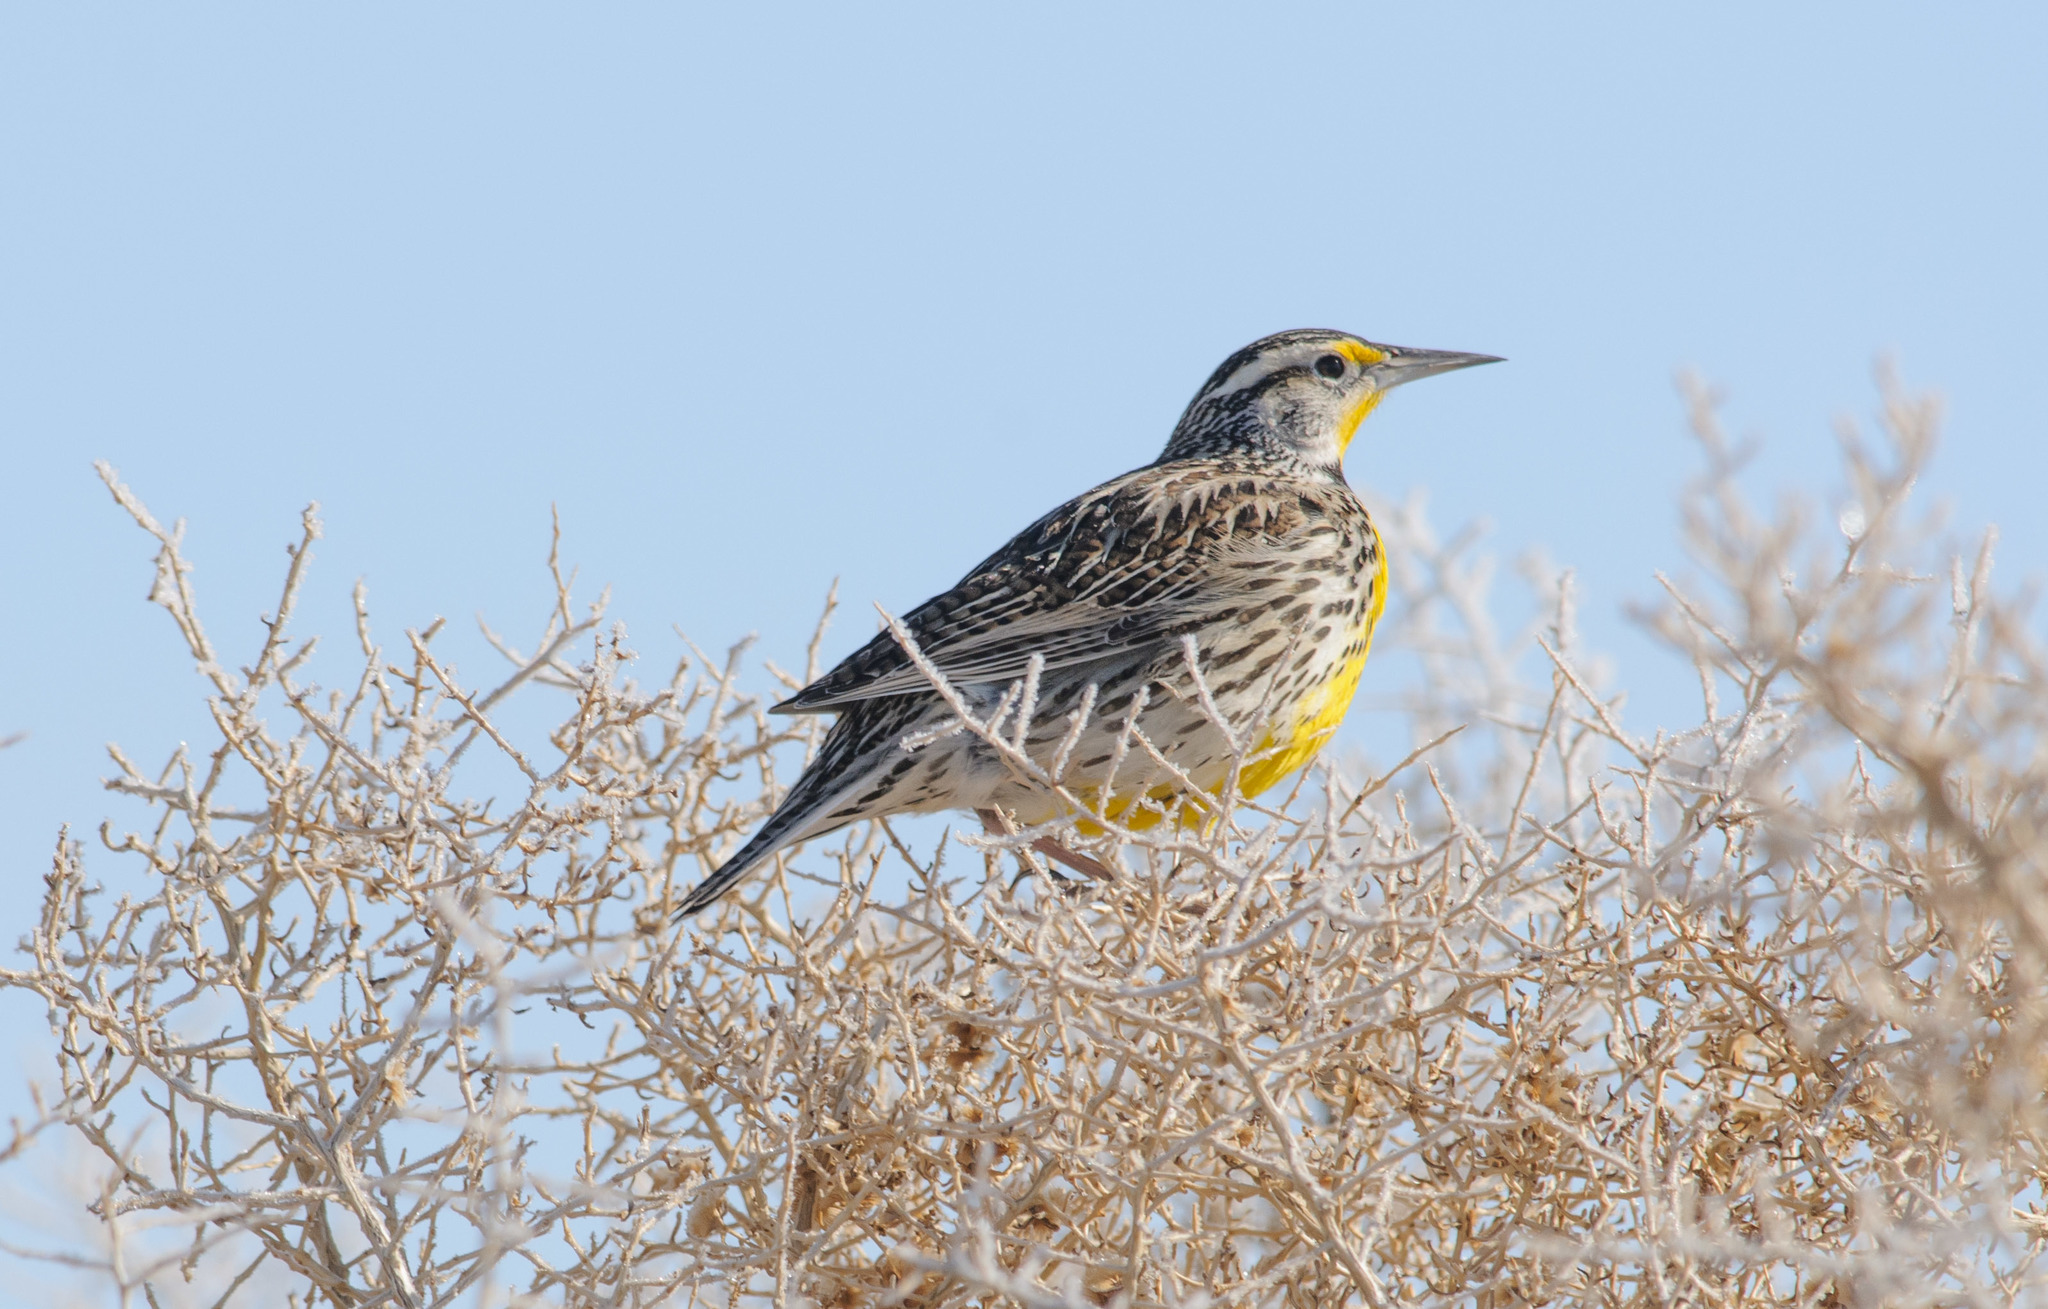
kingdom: Animalia
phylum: Chordata
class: Aves
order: Passeriformes
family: Icteridae
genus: Sturnella
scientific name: Sturnella neglecta
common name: Western meadowlark
